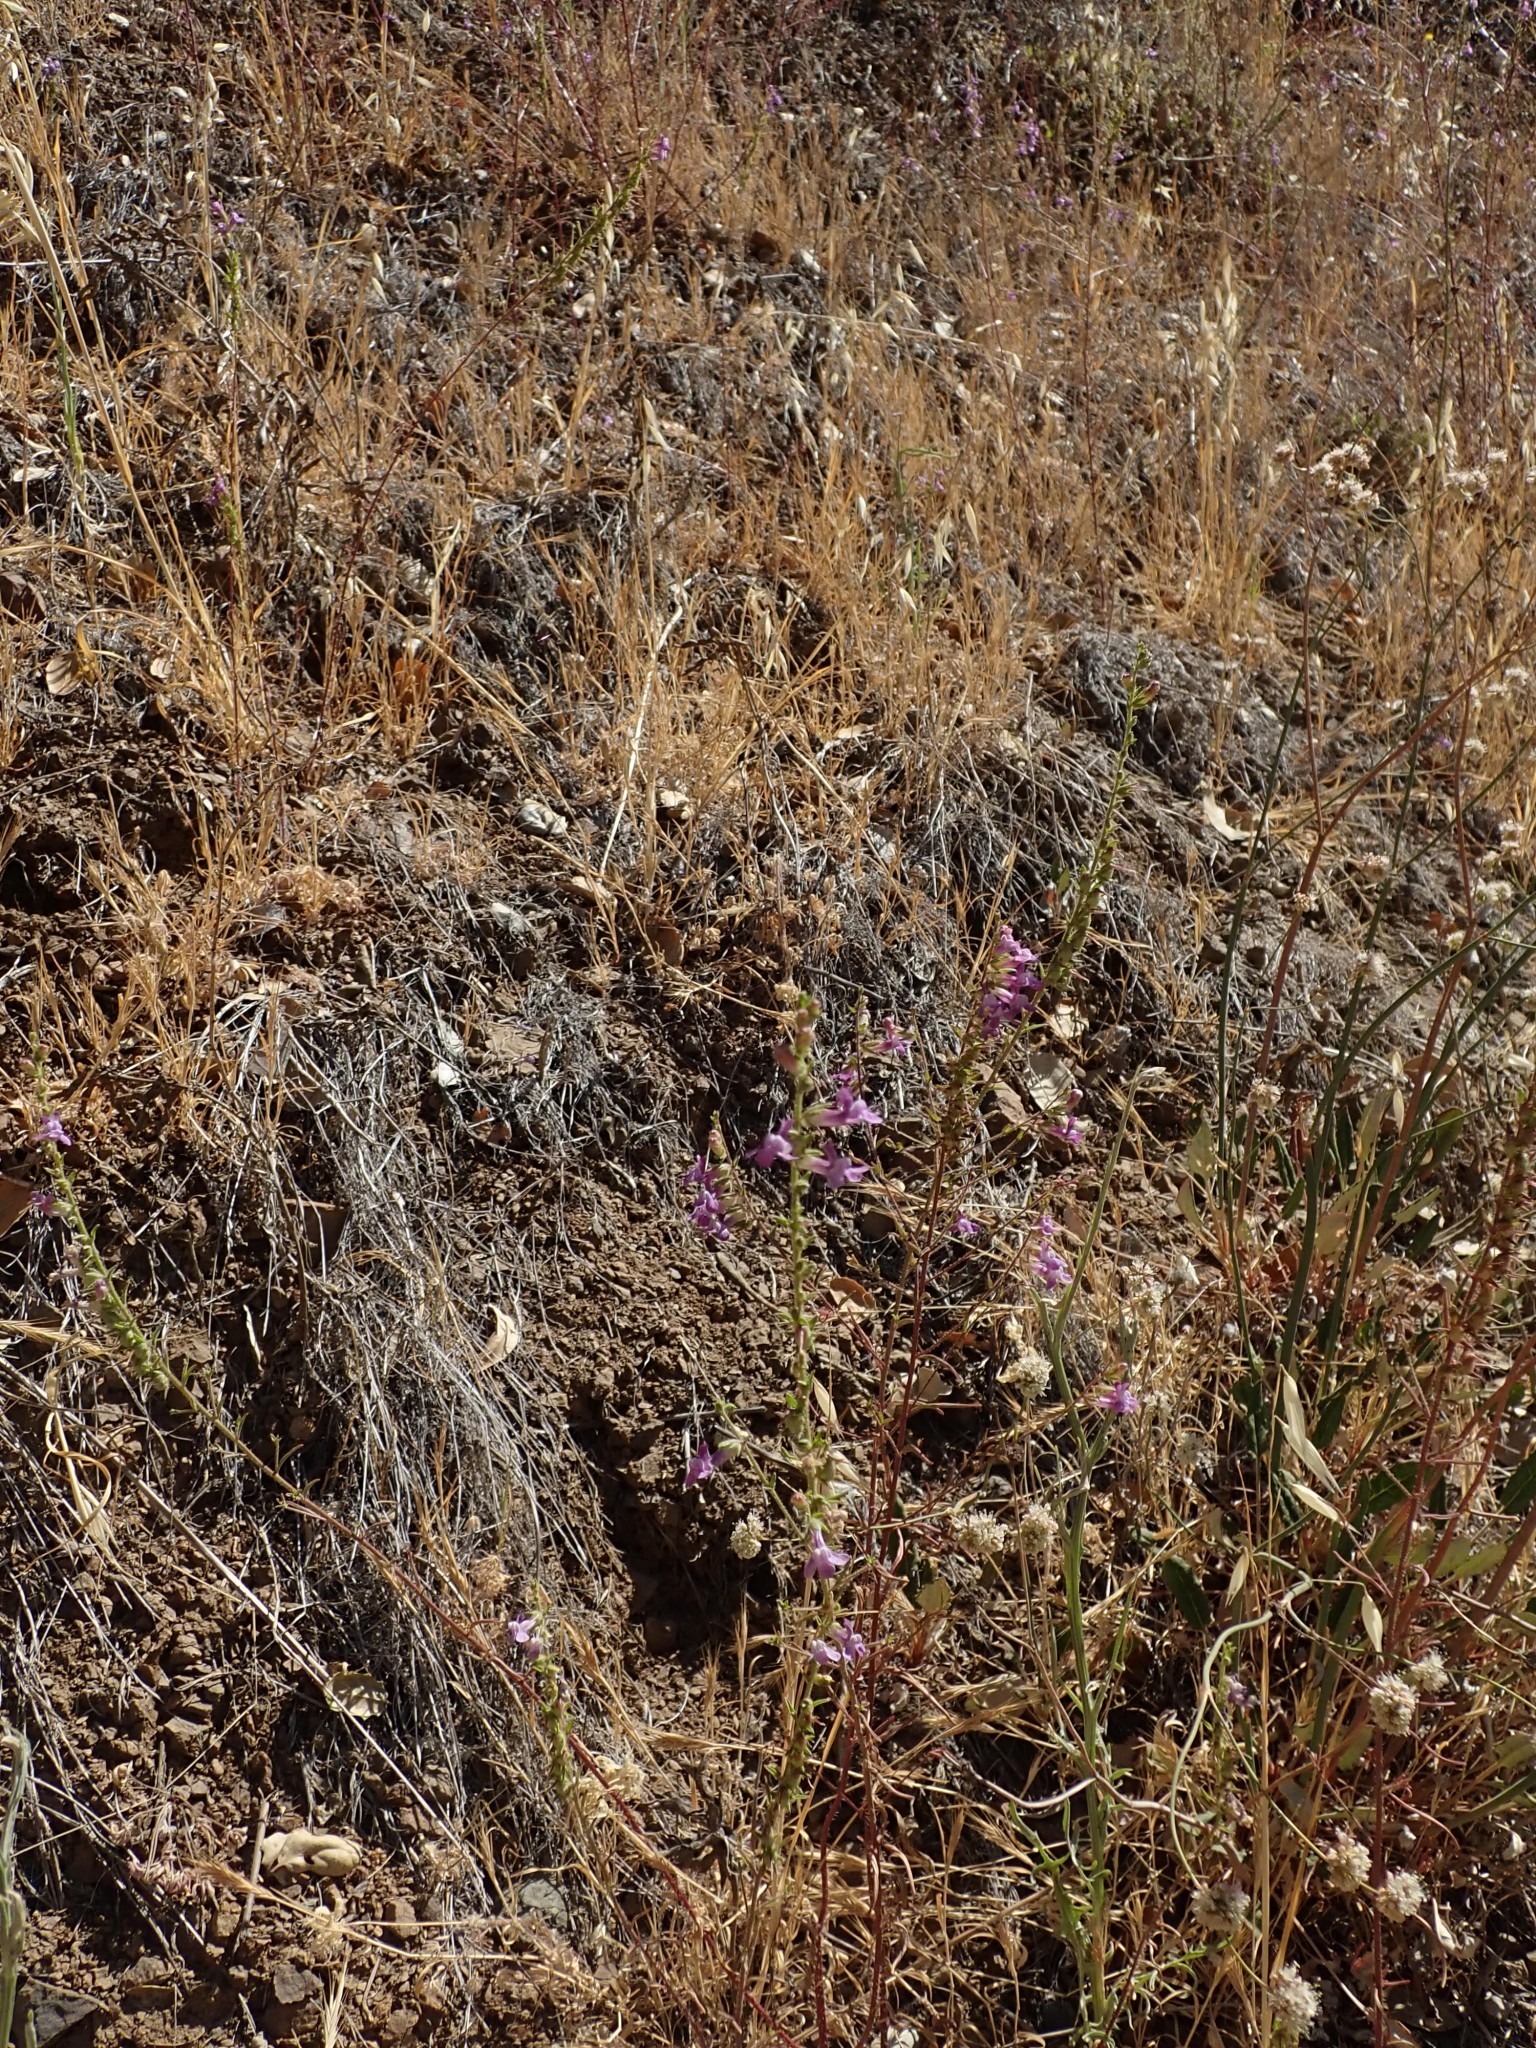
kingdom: Plantae
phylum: Tracheophyta
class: Magnoliopsida
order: Lamiales
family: Plantaginaceae
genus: Sairocarpus
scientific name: Sairocarpus vexillocalyculatus
